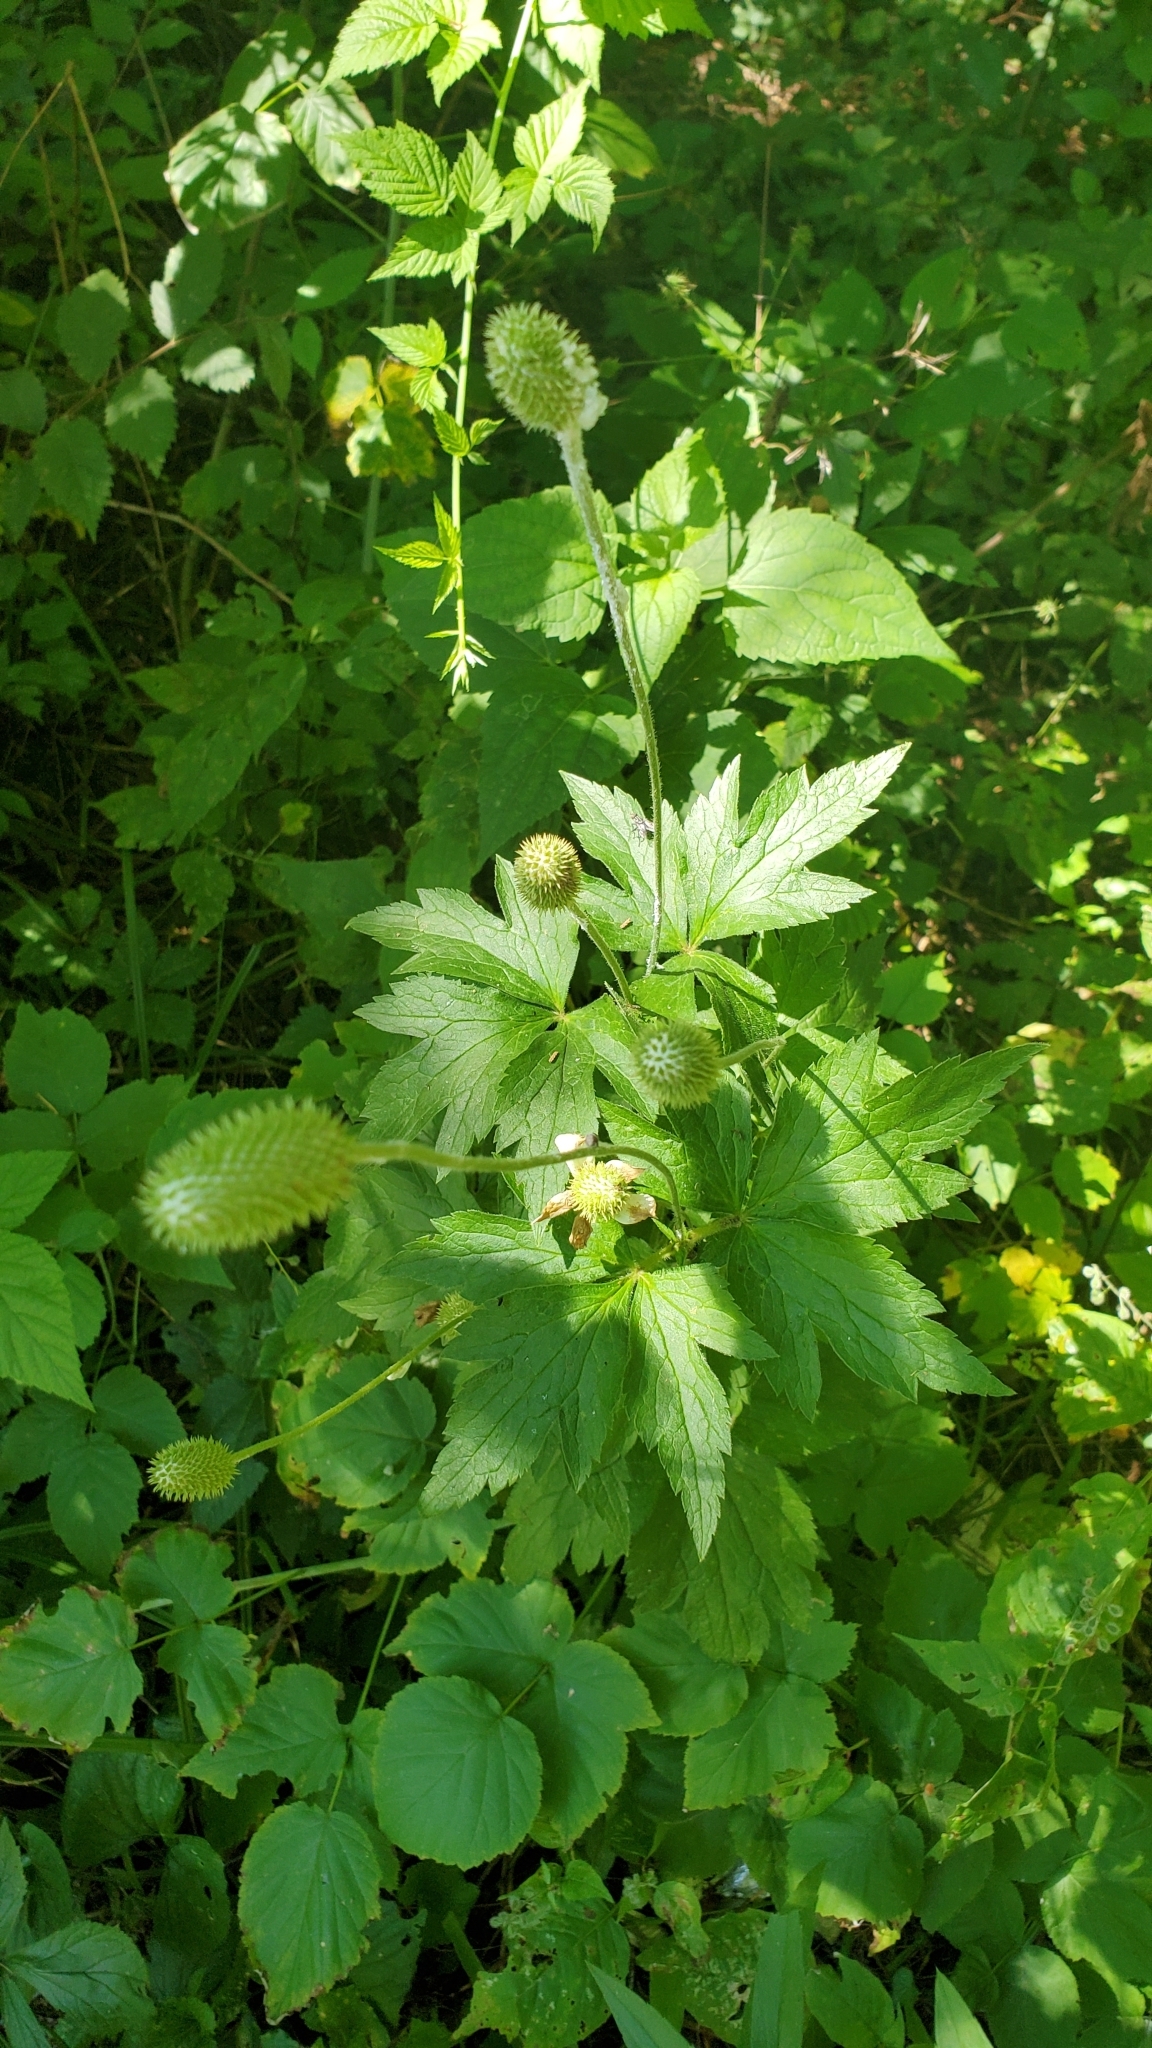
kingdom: Plantae
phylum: Tracheophyta
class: Magnoliopsida
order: Ranunculales
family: Ranunculaceae
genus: Anemone
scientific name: Anemone virginiana
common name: Tall anemone
